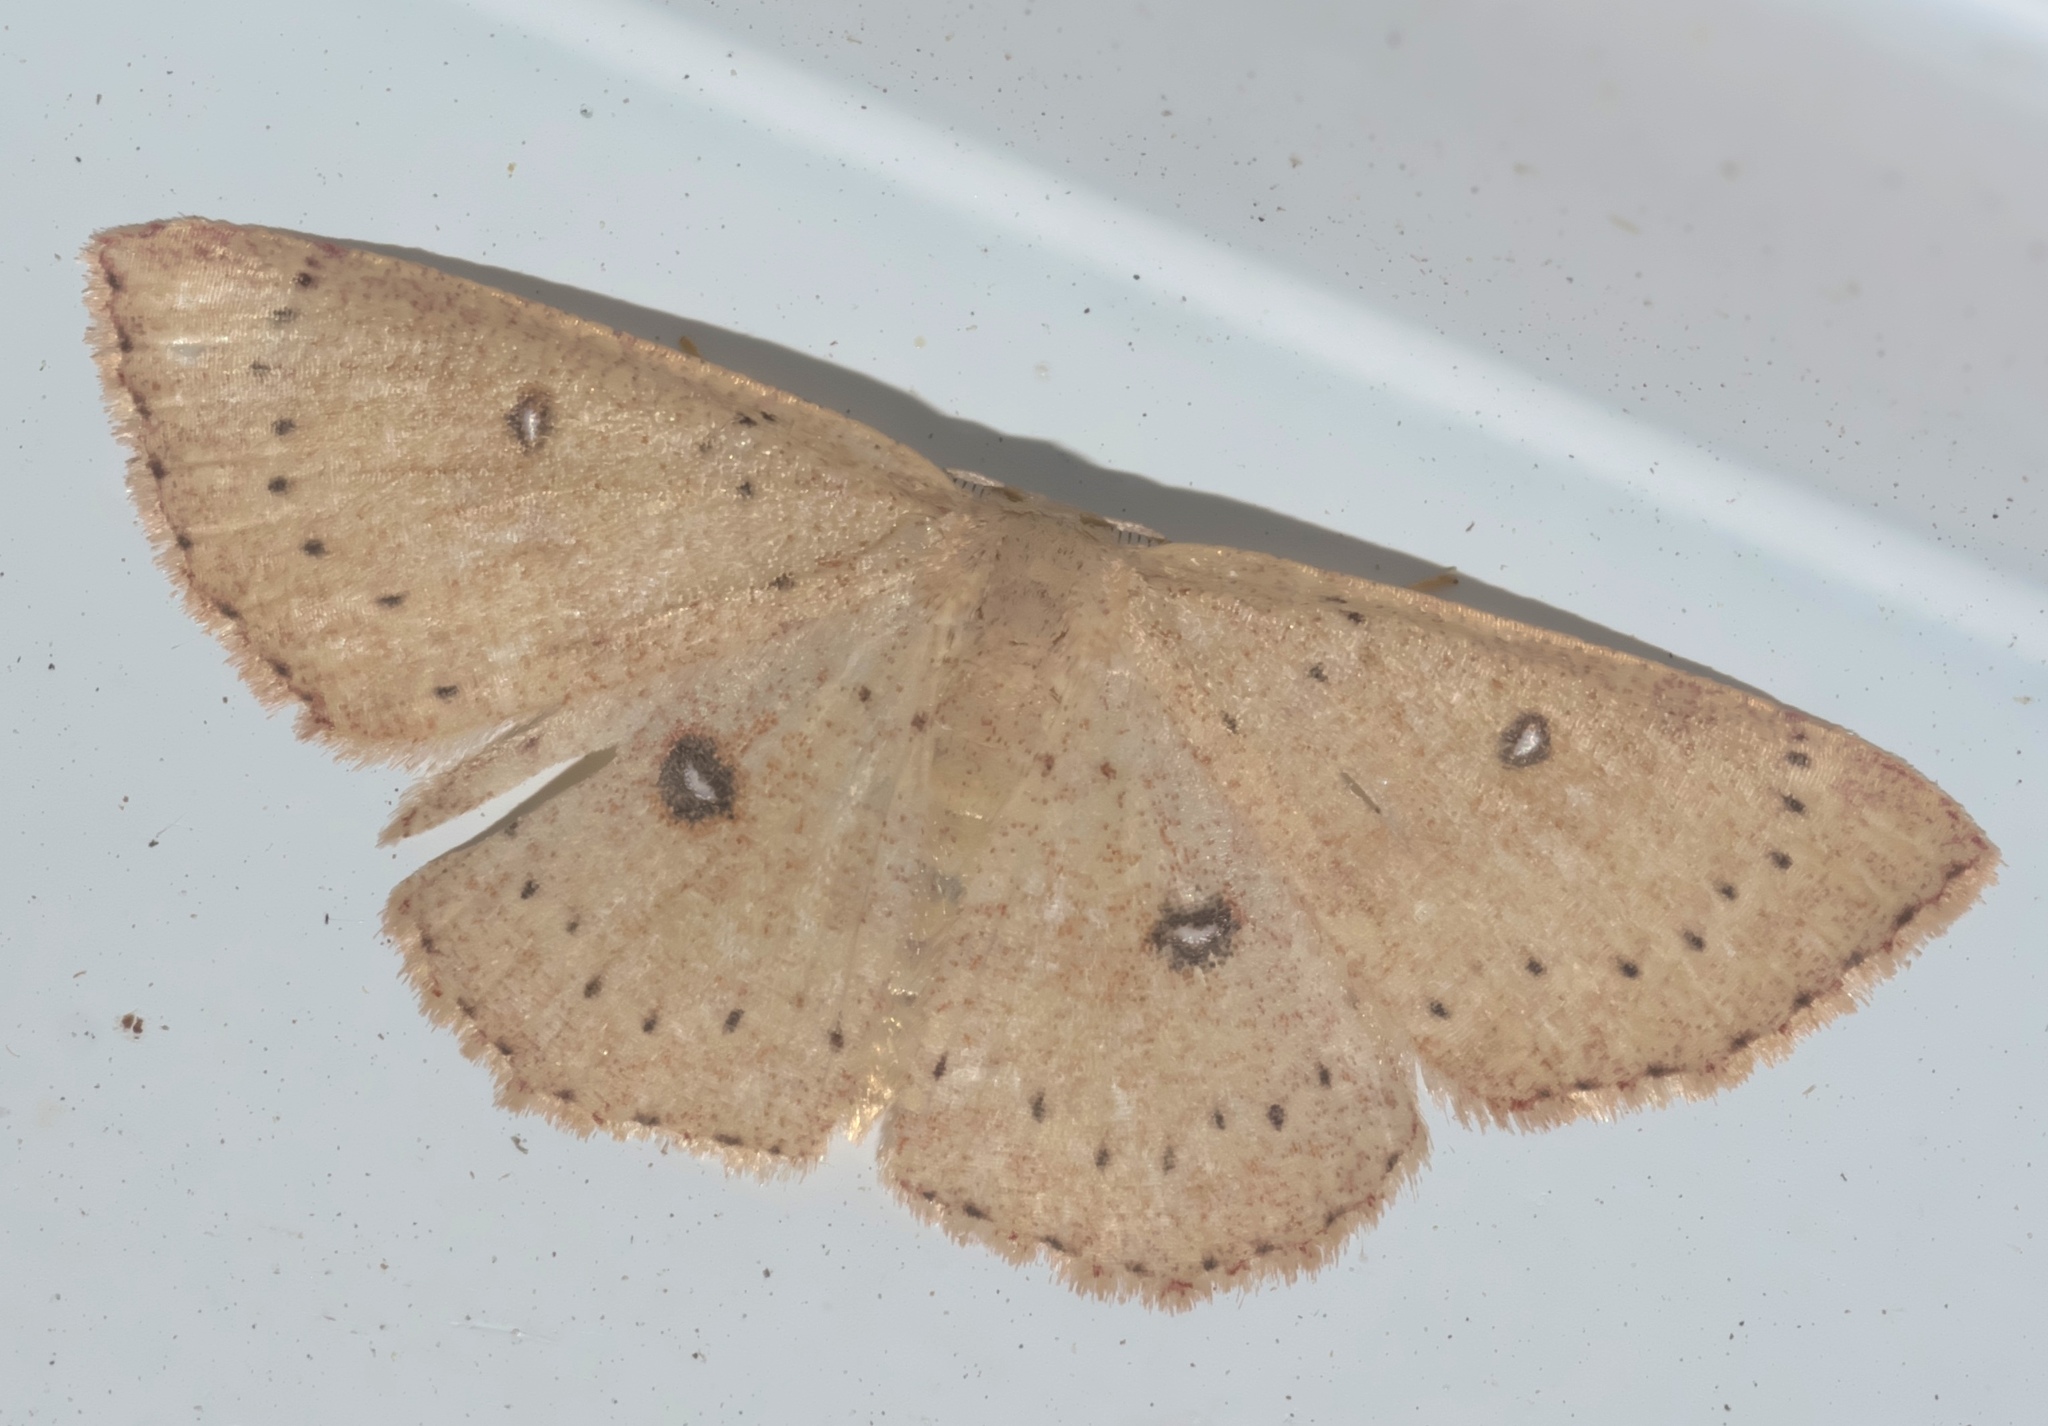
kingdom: Animalia
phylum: Arthropoda
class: Insecta
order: Lepidoptera
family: Geometridae
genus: Cyclophora
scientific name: Cyclophora packardi
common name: Packard's wave
